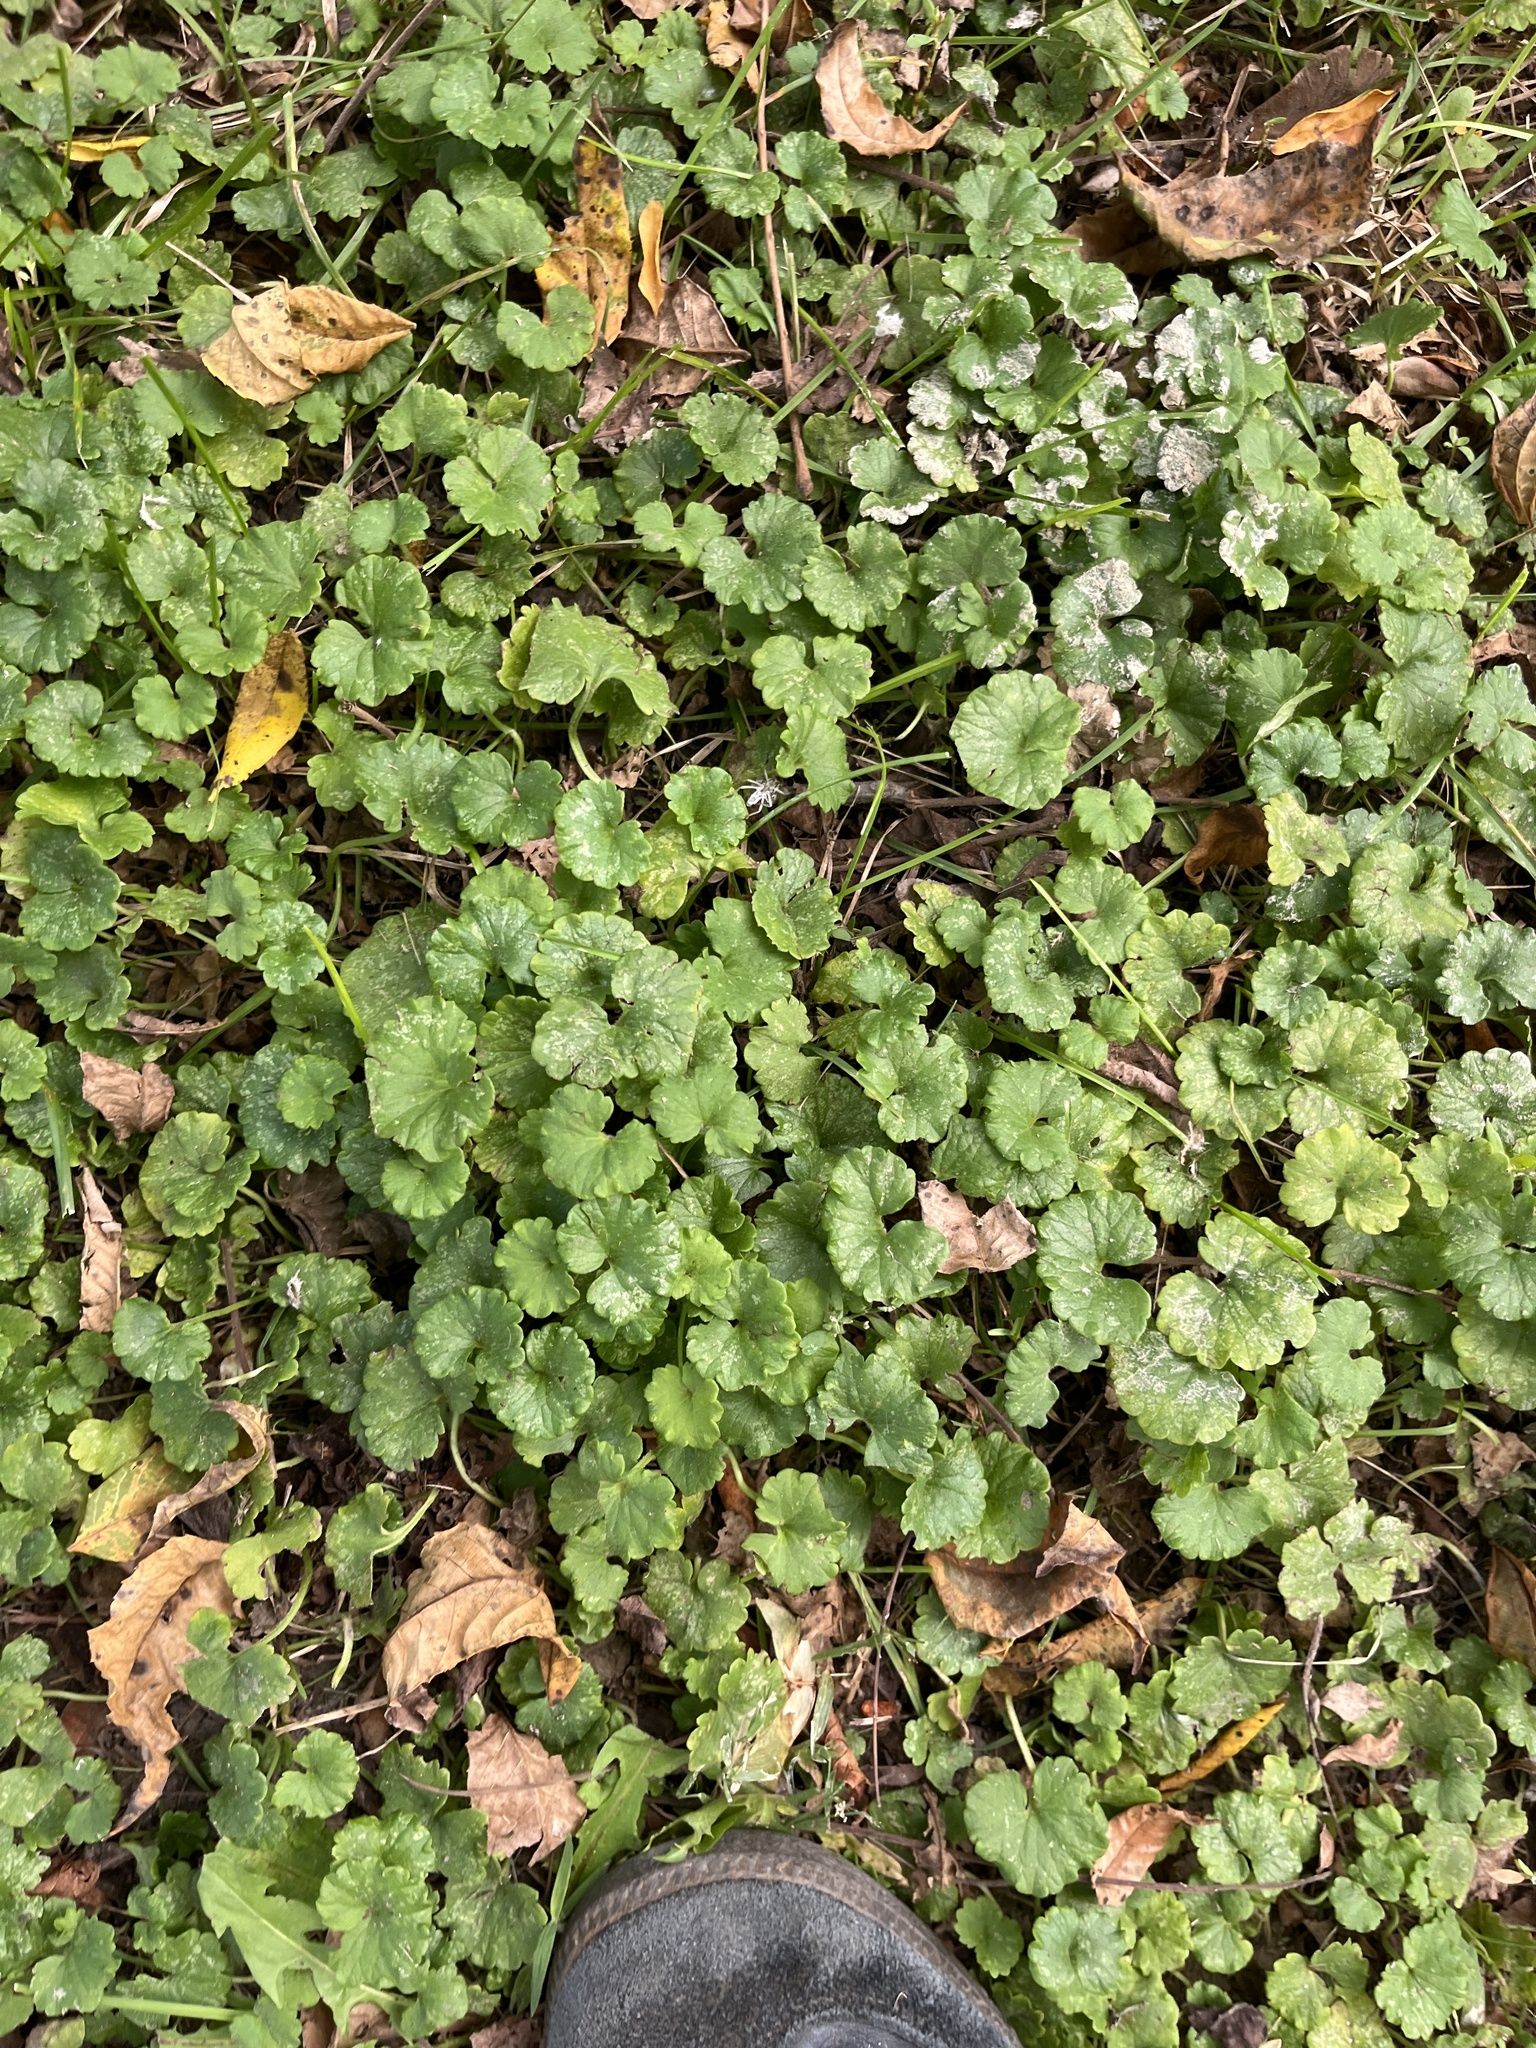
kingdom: Plantae
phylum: Tracheophyta
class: Magnoliopsida
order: Lamiales
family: Lamiaceae
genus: Glechoma
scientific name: Glechoma hederacea
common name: Ground ivy
